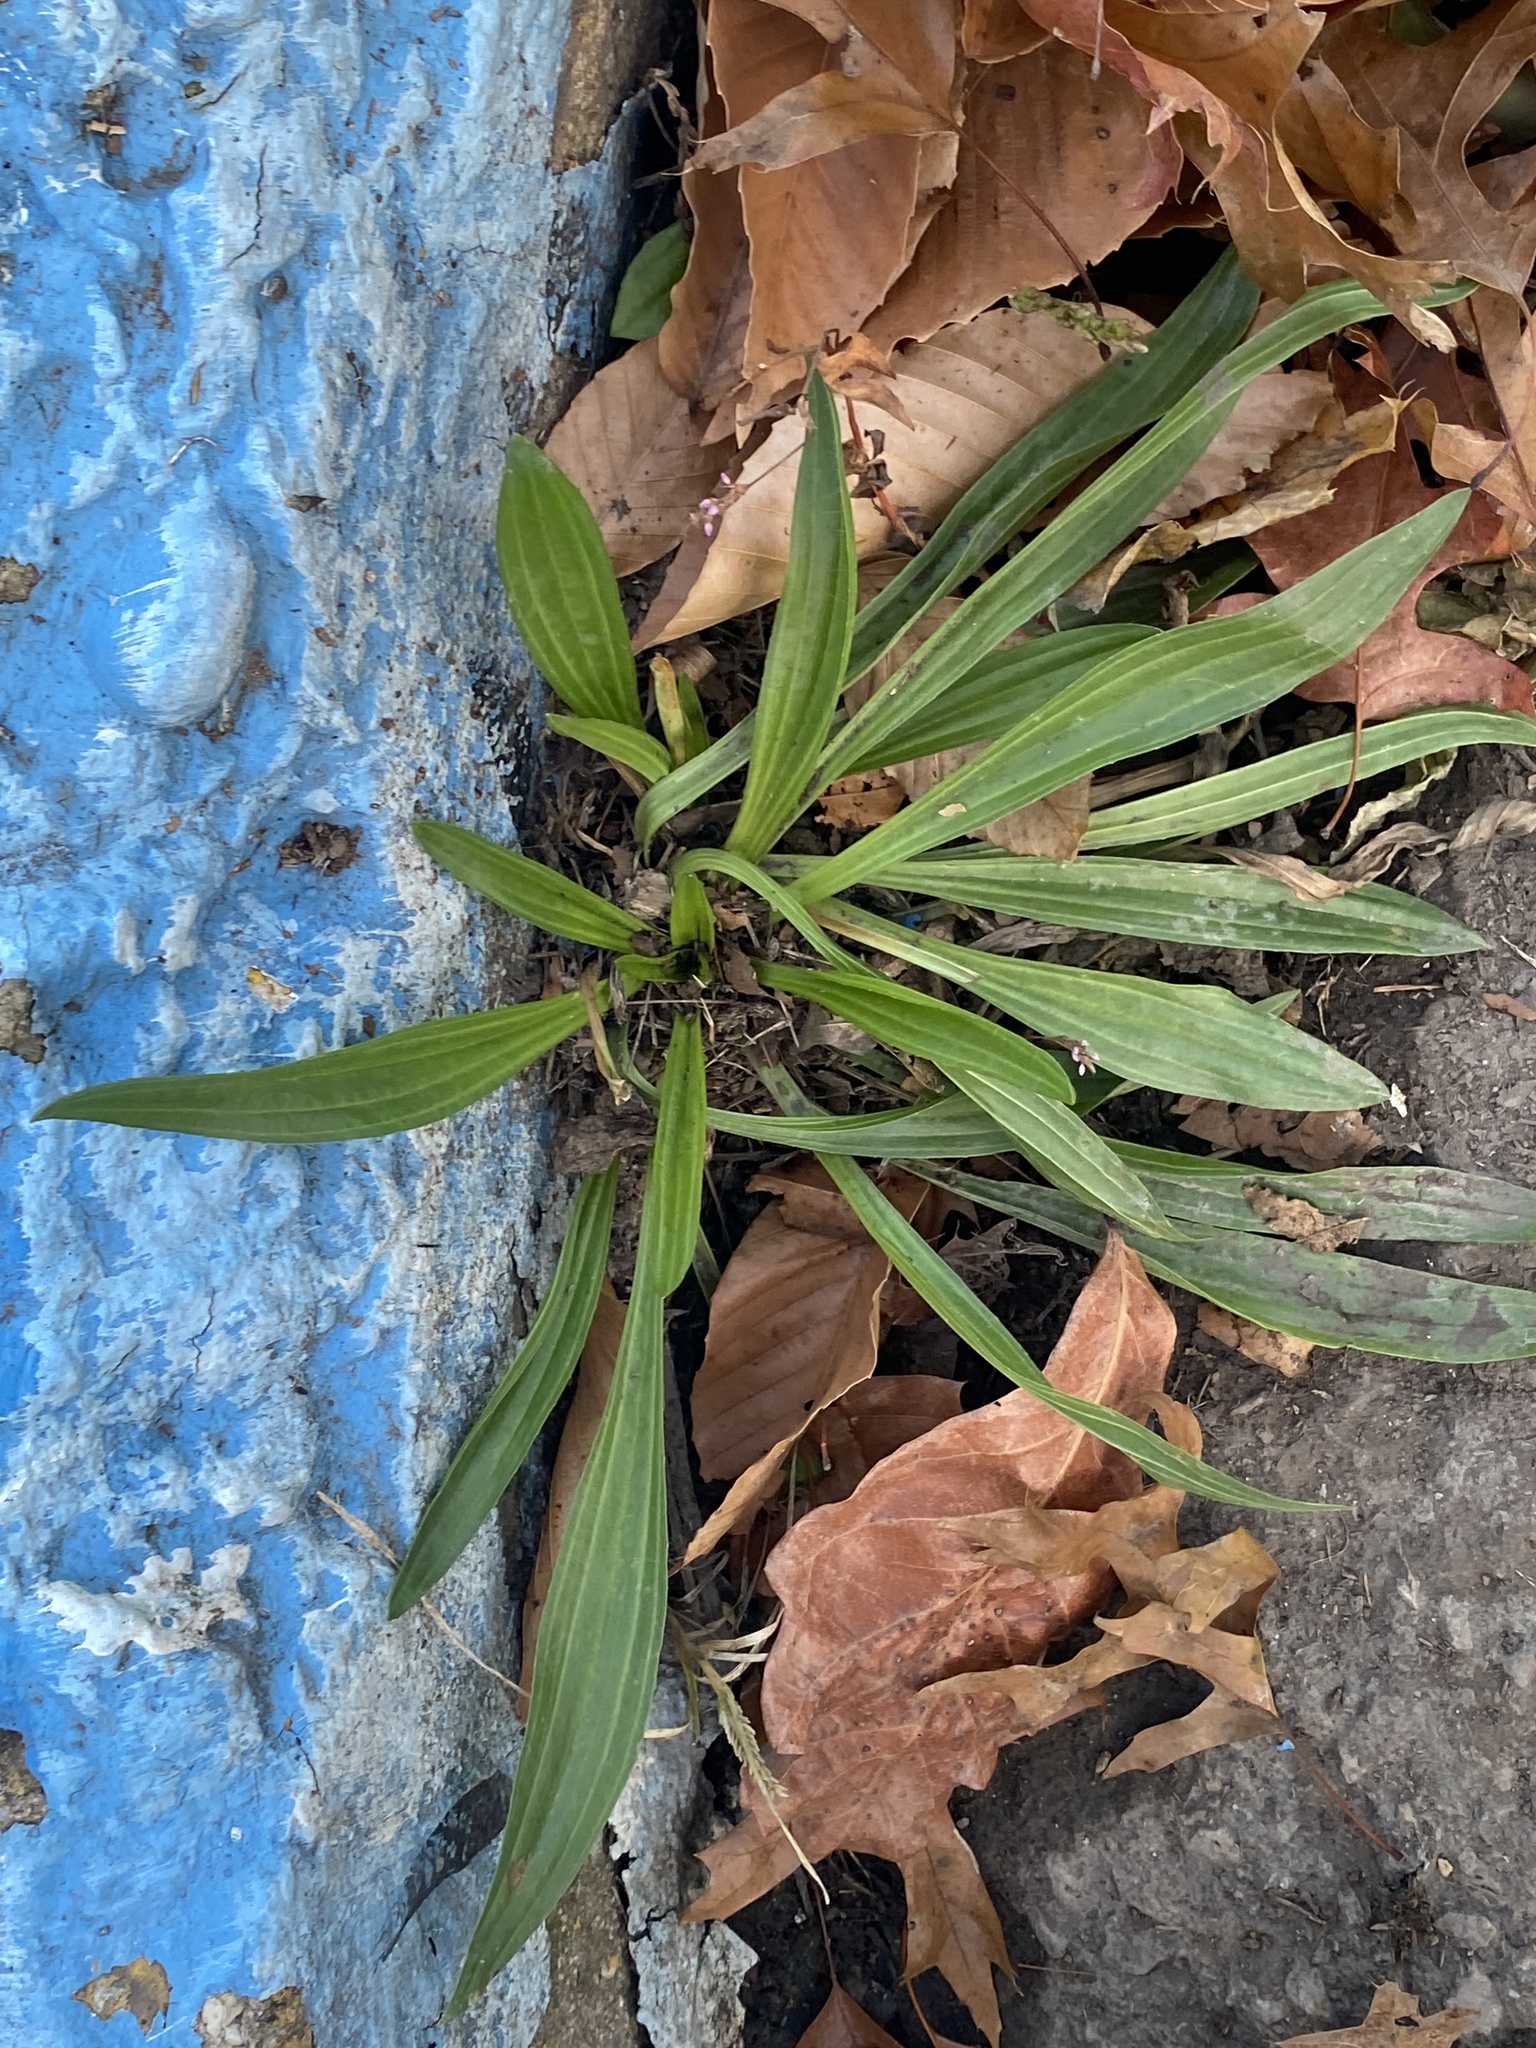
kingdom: Plantae
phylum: Tracheophyta
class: Magnoliopsida
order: Lamiales
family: Plantaginaceae
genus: Plantago
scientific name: Plantago lanceolata
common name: Ribwort plantain
